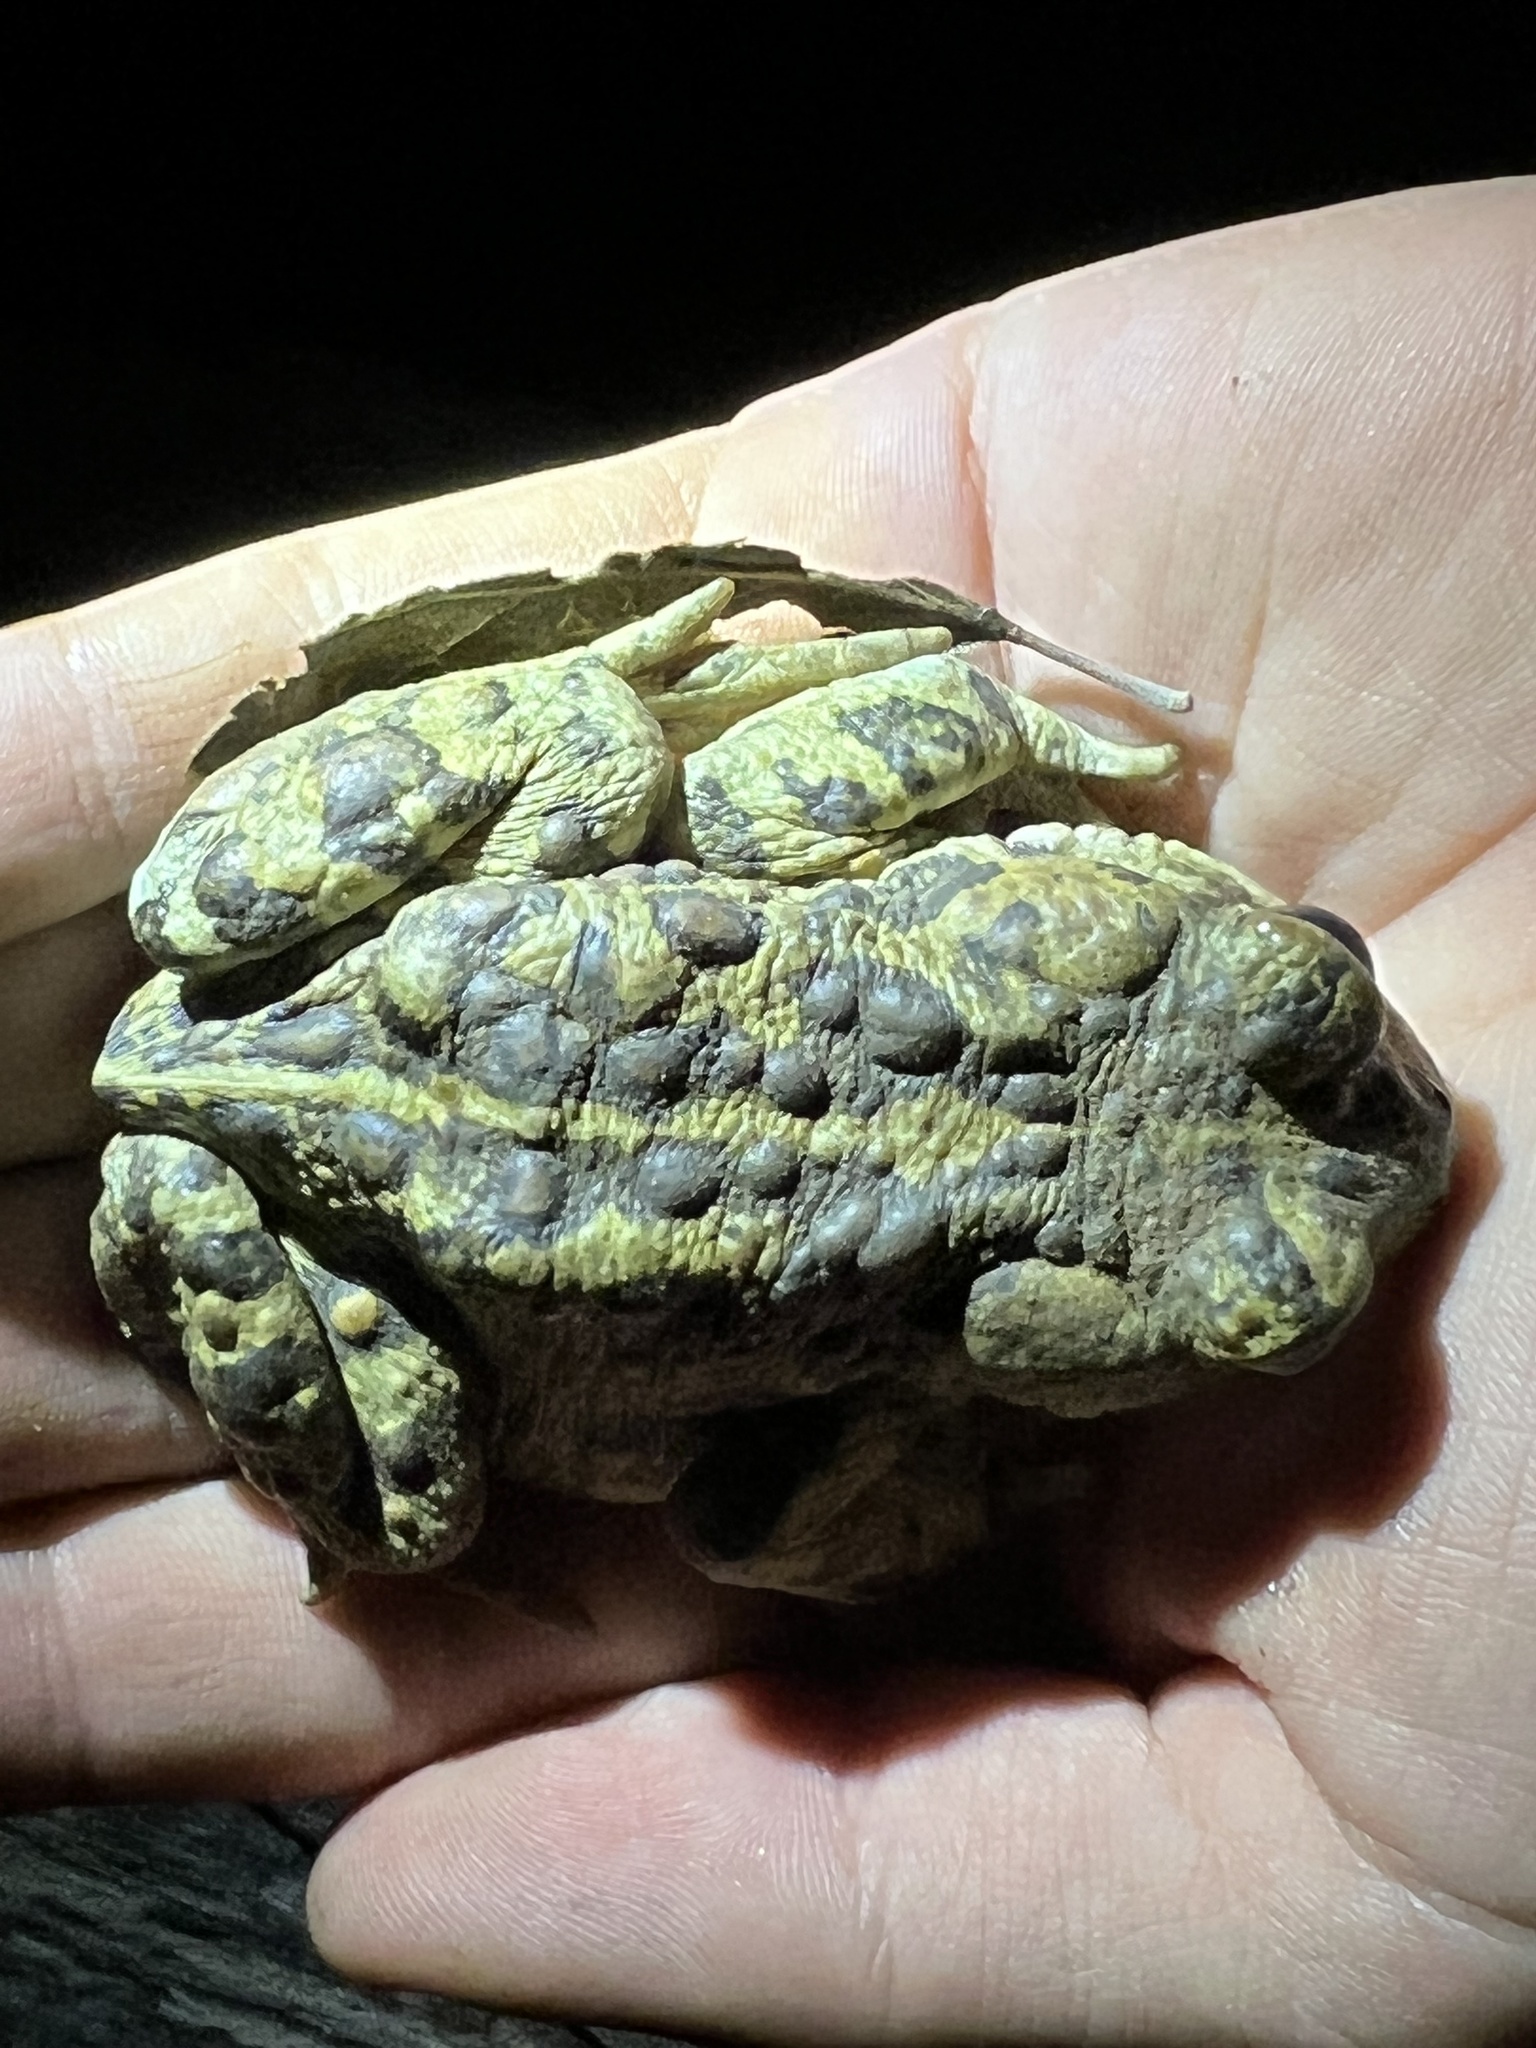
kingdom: Animalia
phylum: Chordata
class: Amphibia
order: Anura
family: Bufonidae
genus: Anaxyrus
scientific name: Anaxyrus boreas
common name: Western toad
